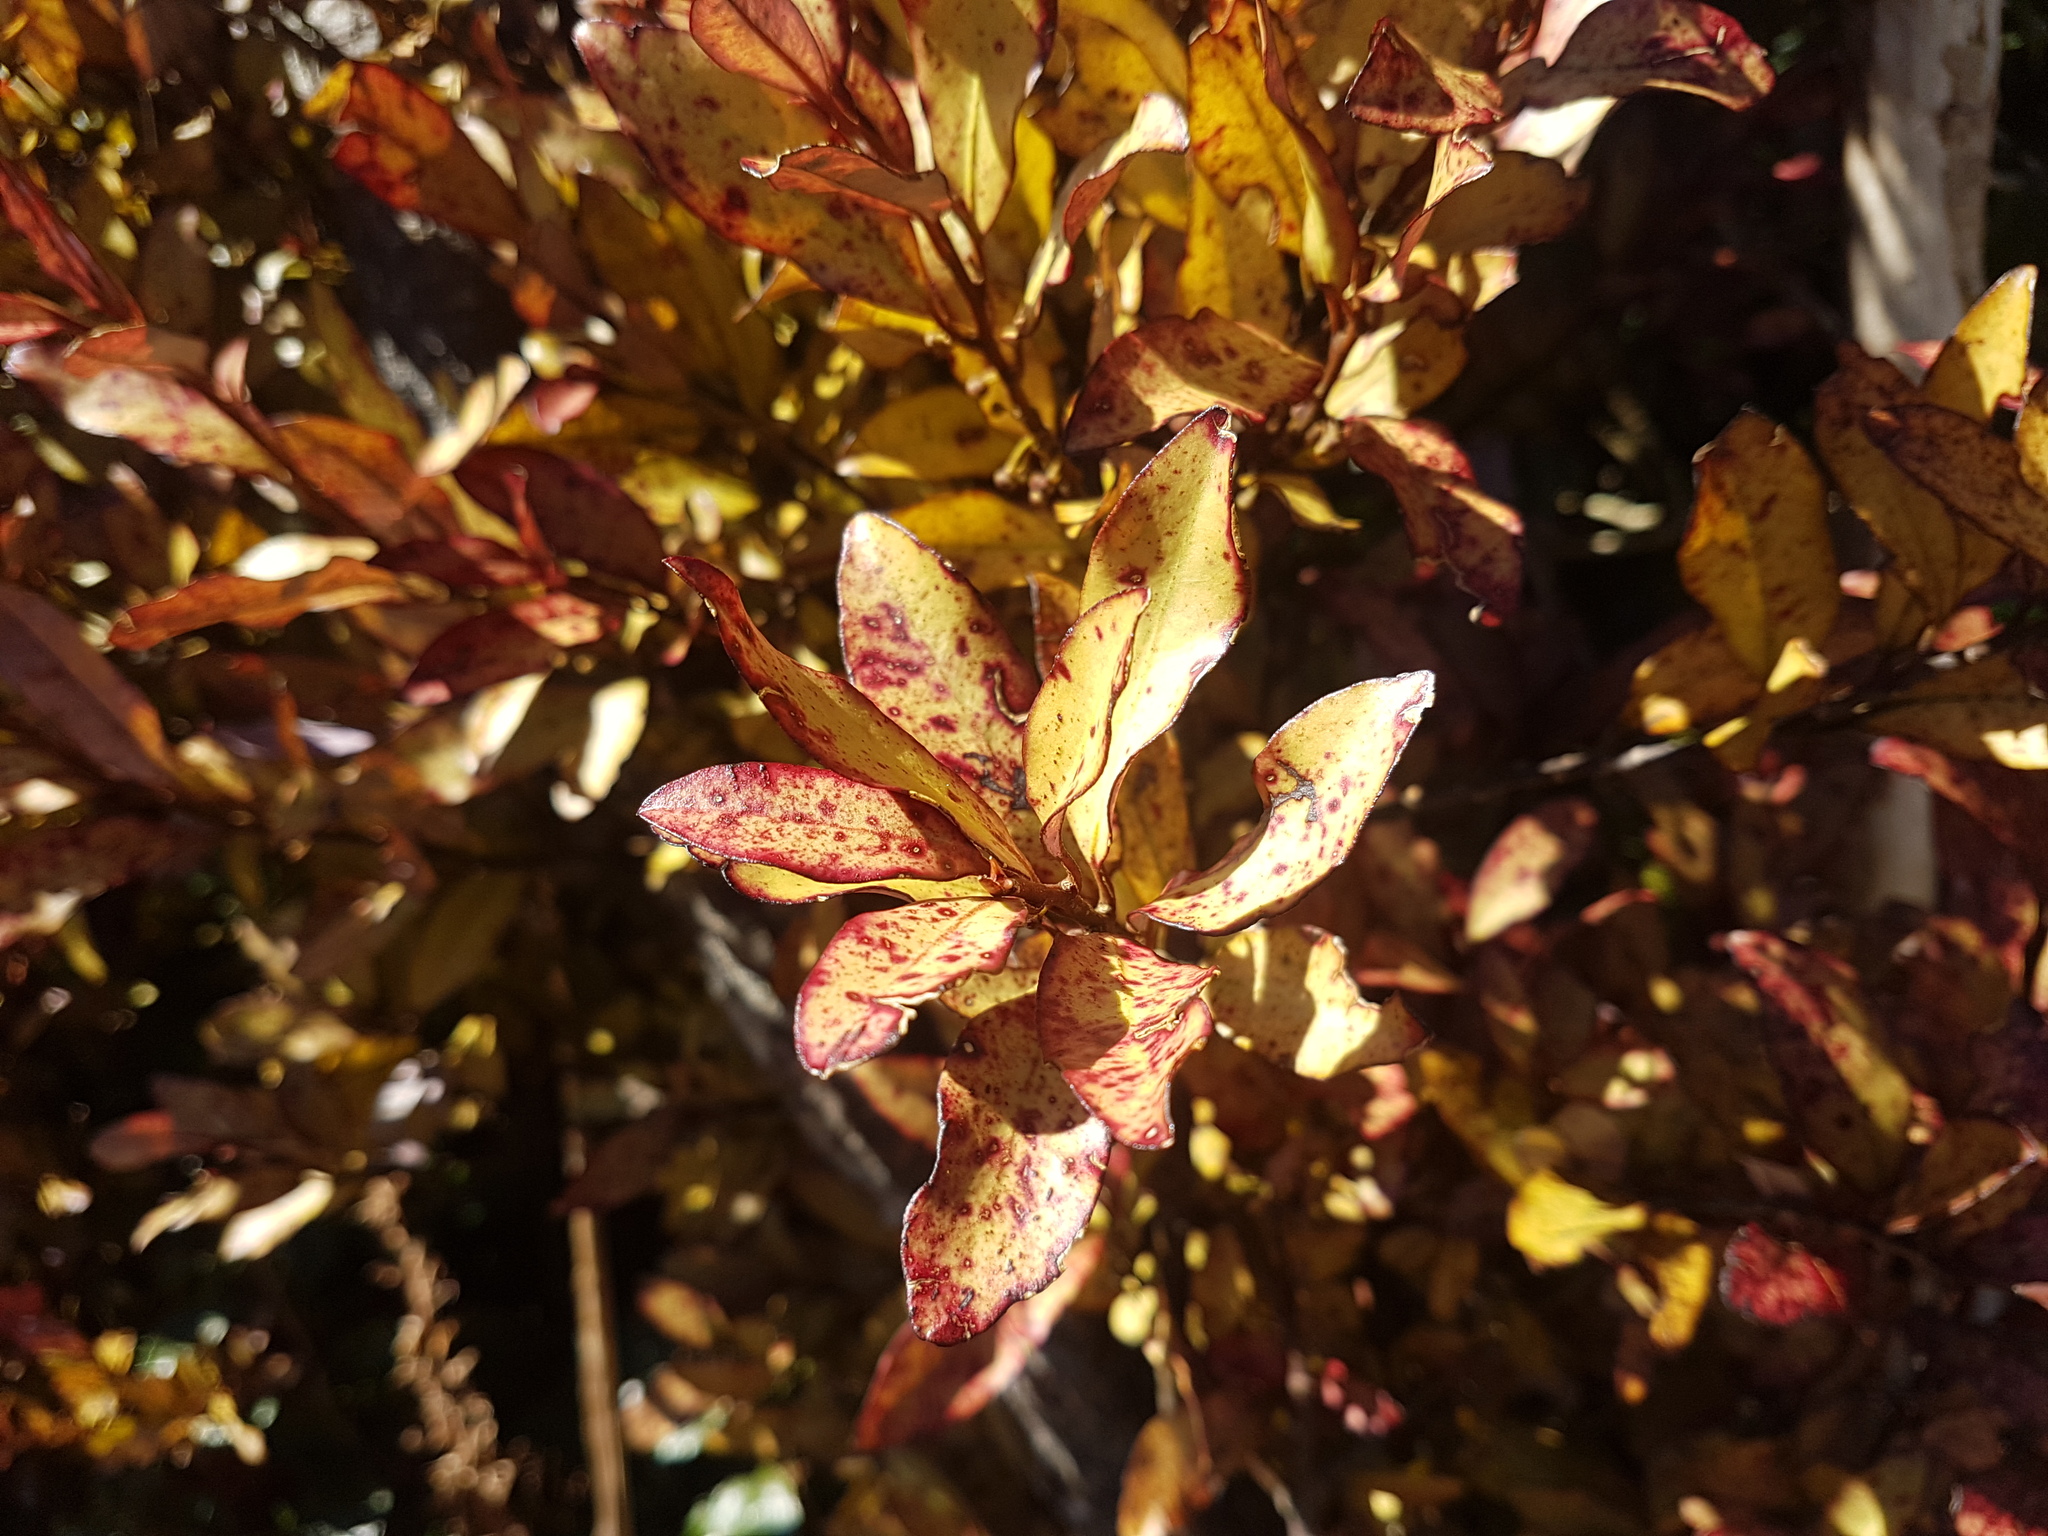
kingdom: Plantae
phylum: Tracheophyta
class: Magnoliopsida
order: Canellales
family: Winteraceae
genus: Pseudowintera
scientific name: Pseudowintera colorata
